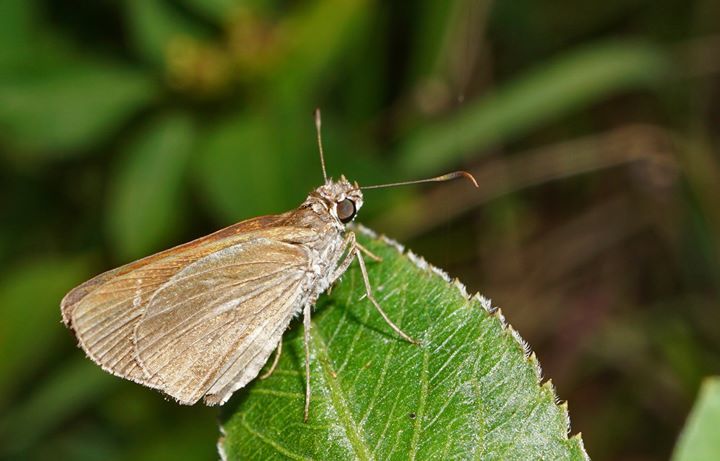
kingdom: Animalia
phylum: Arthropoda
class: Insecta
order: Lepidoptera
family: Hesperiidae
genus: Cymaenes
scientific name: Cymaenes tripunctus
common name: Dingy dotted skipper
